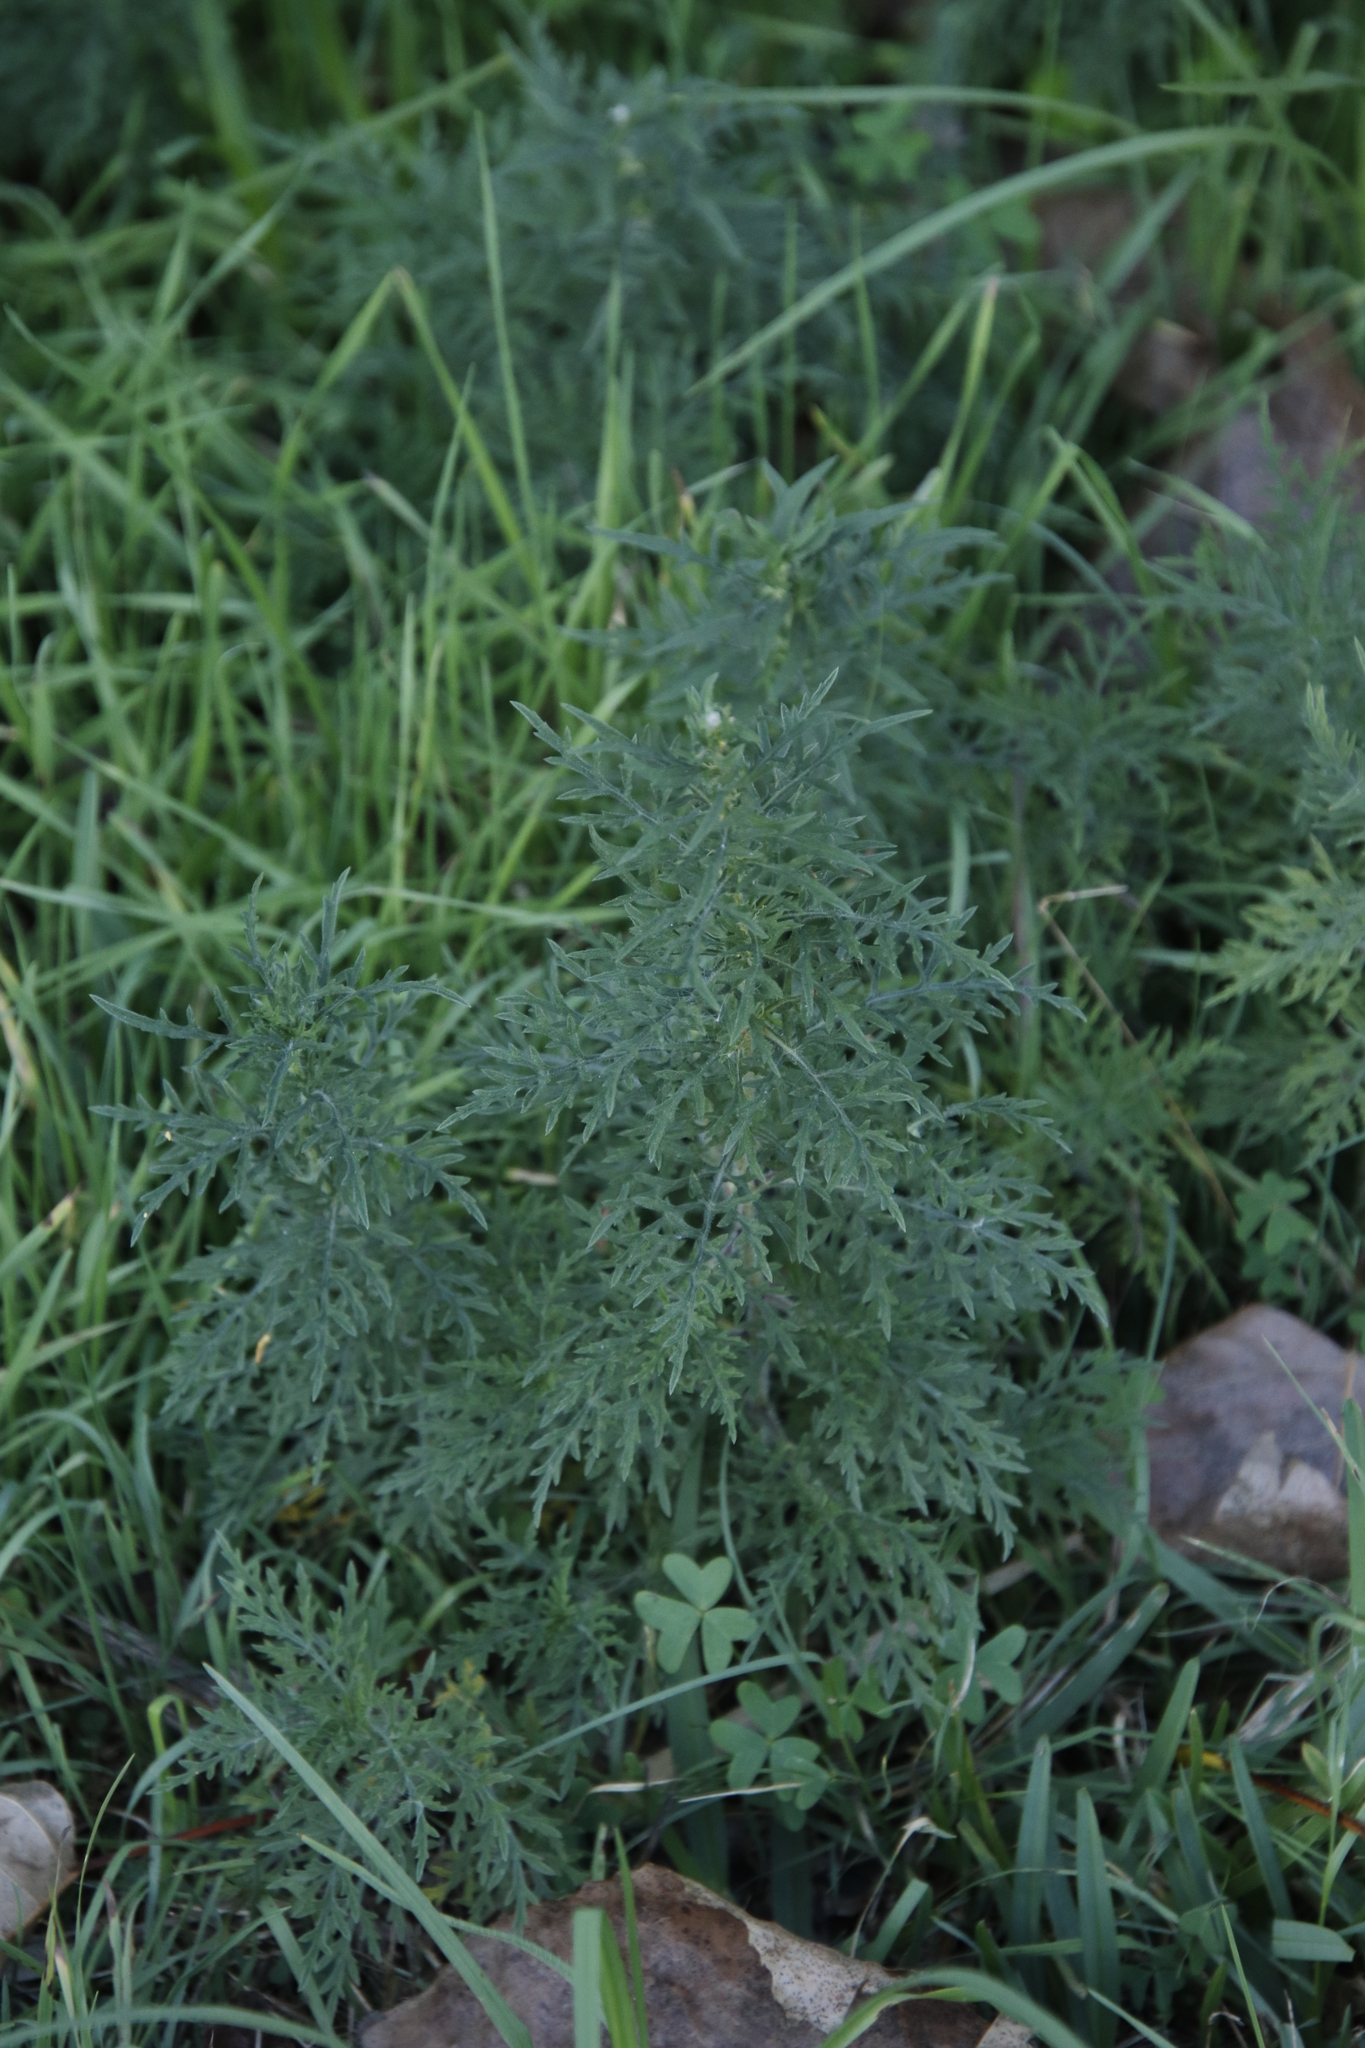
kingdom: Plantae
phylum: Tracheophyta
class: Magnoliopsida
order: Asterales
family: Asteraceae
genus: Ambrosia
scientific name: Ambrosia tenuifolia
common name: Lacy ambrosia
